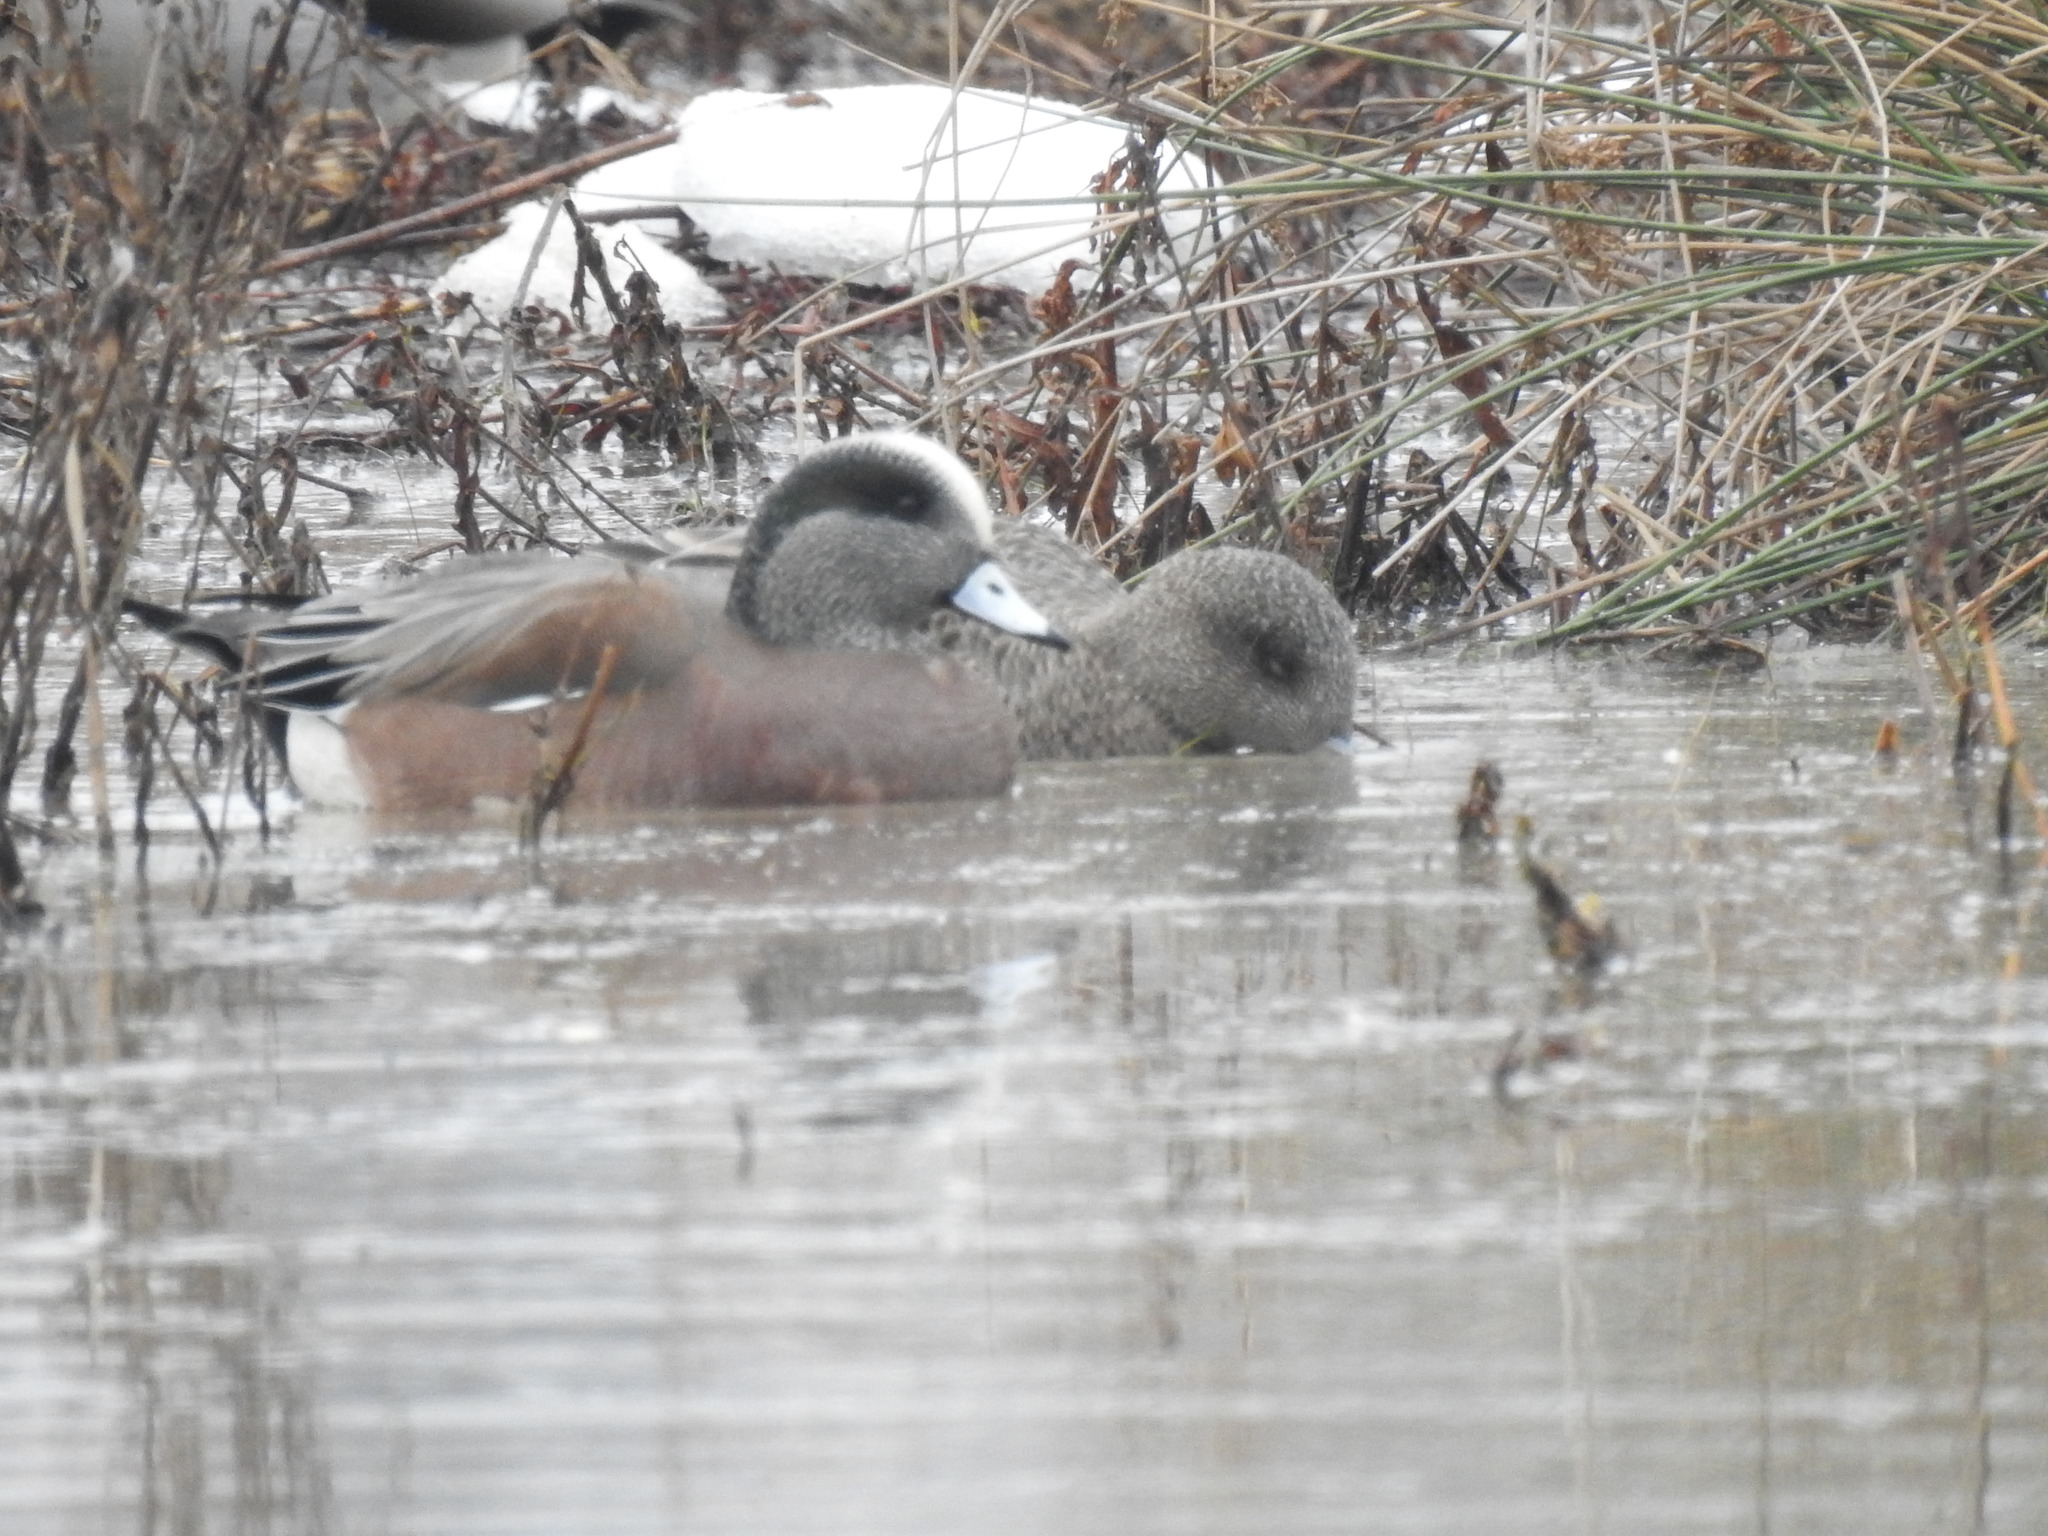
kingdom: Animalia
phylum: Chordata
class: Aves
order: Anseriformes
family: Anatidae
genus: Mareca
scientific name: Mareca americana
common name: American wigeon
